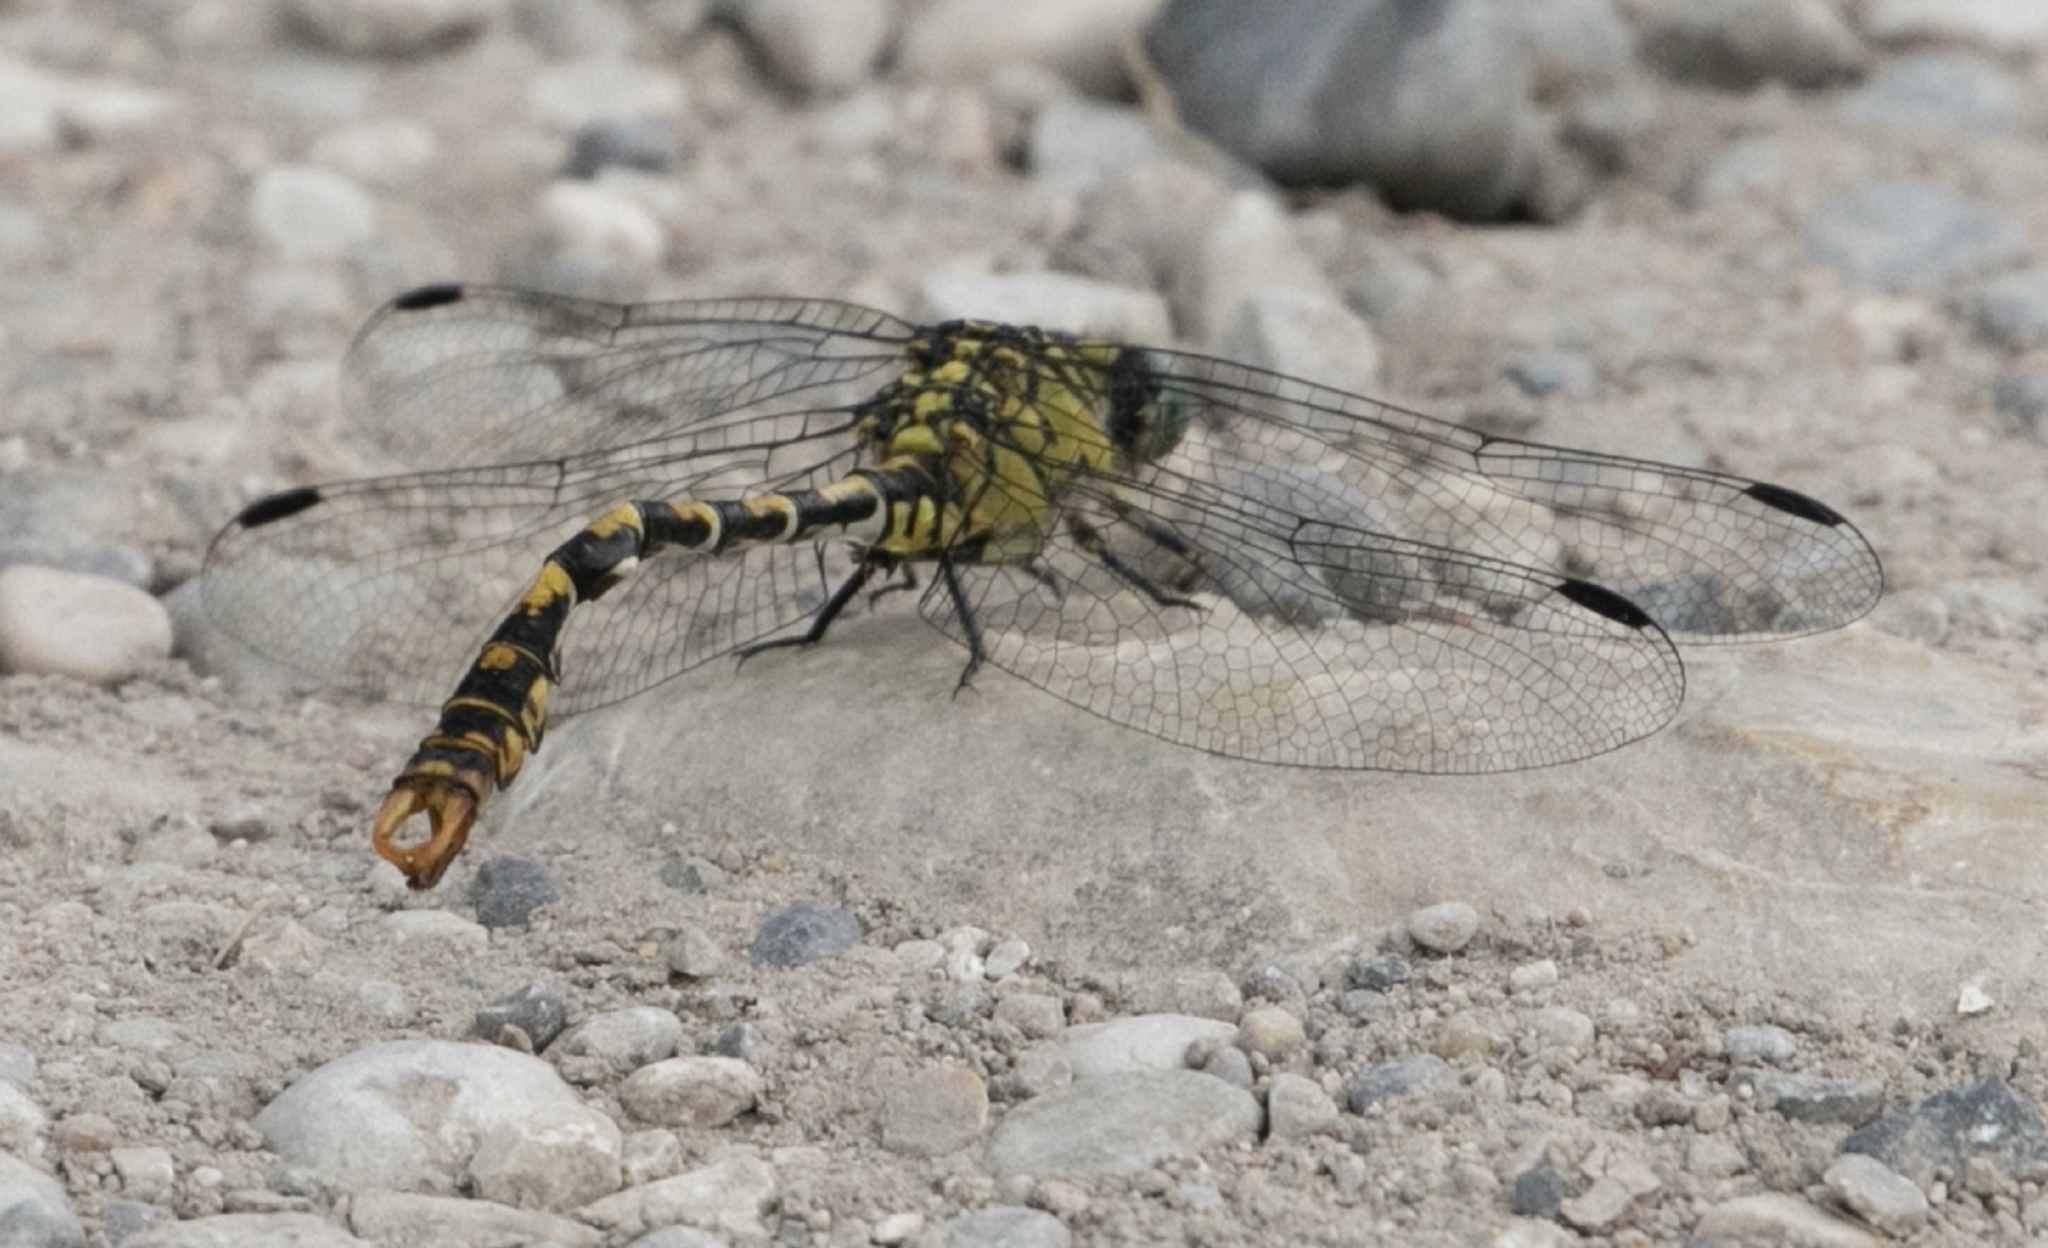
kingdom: Animalia
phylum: Arthropoda
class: Insecta
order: Odonata
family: Gomphidae
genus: Onychogomphus
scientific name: Onychogomphus forcipatus
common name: Small pincertail
